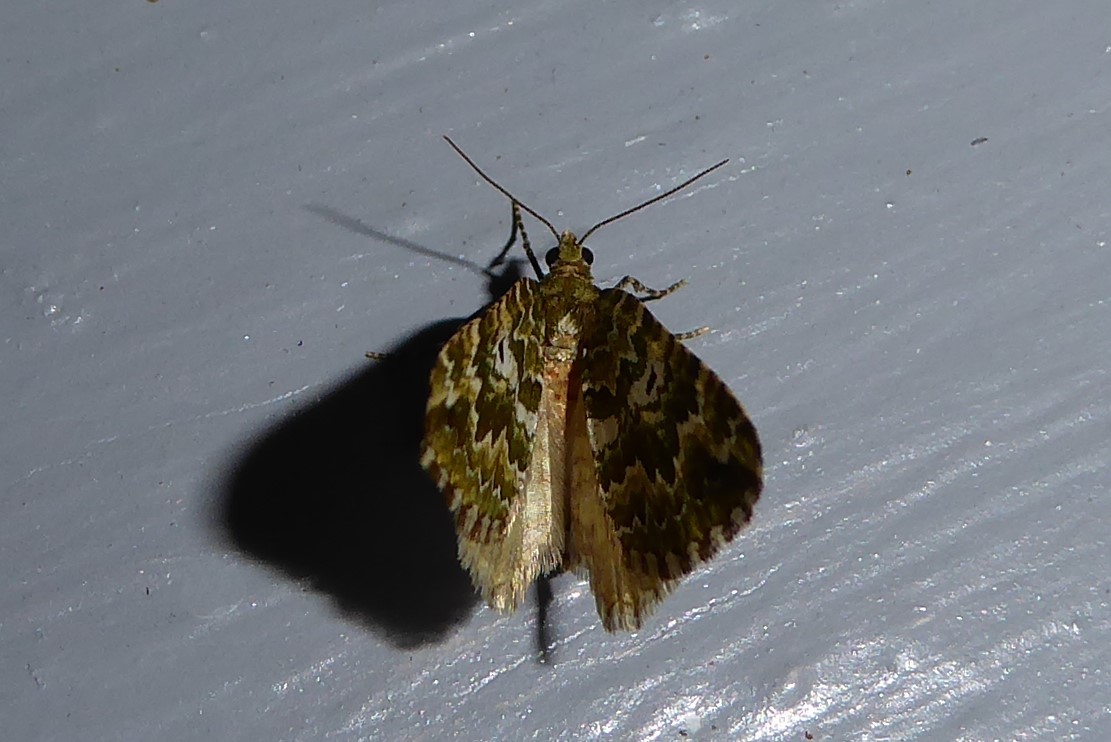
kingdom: Animalia
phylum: Arthropoda
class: Insecta
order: Lepidoptera
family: Geometridae
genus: Asaphodes
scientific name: Asaphodes beata
